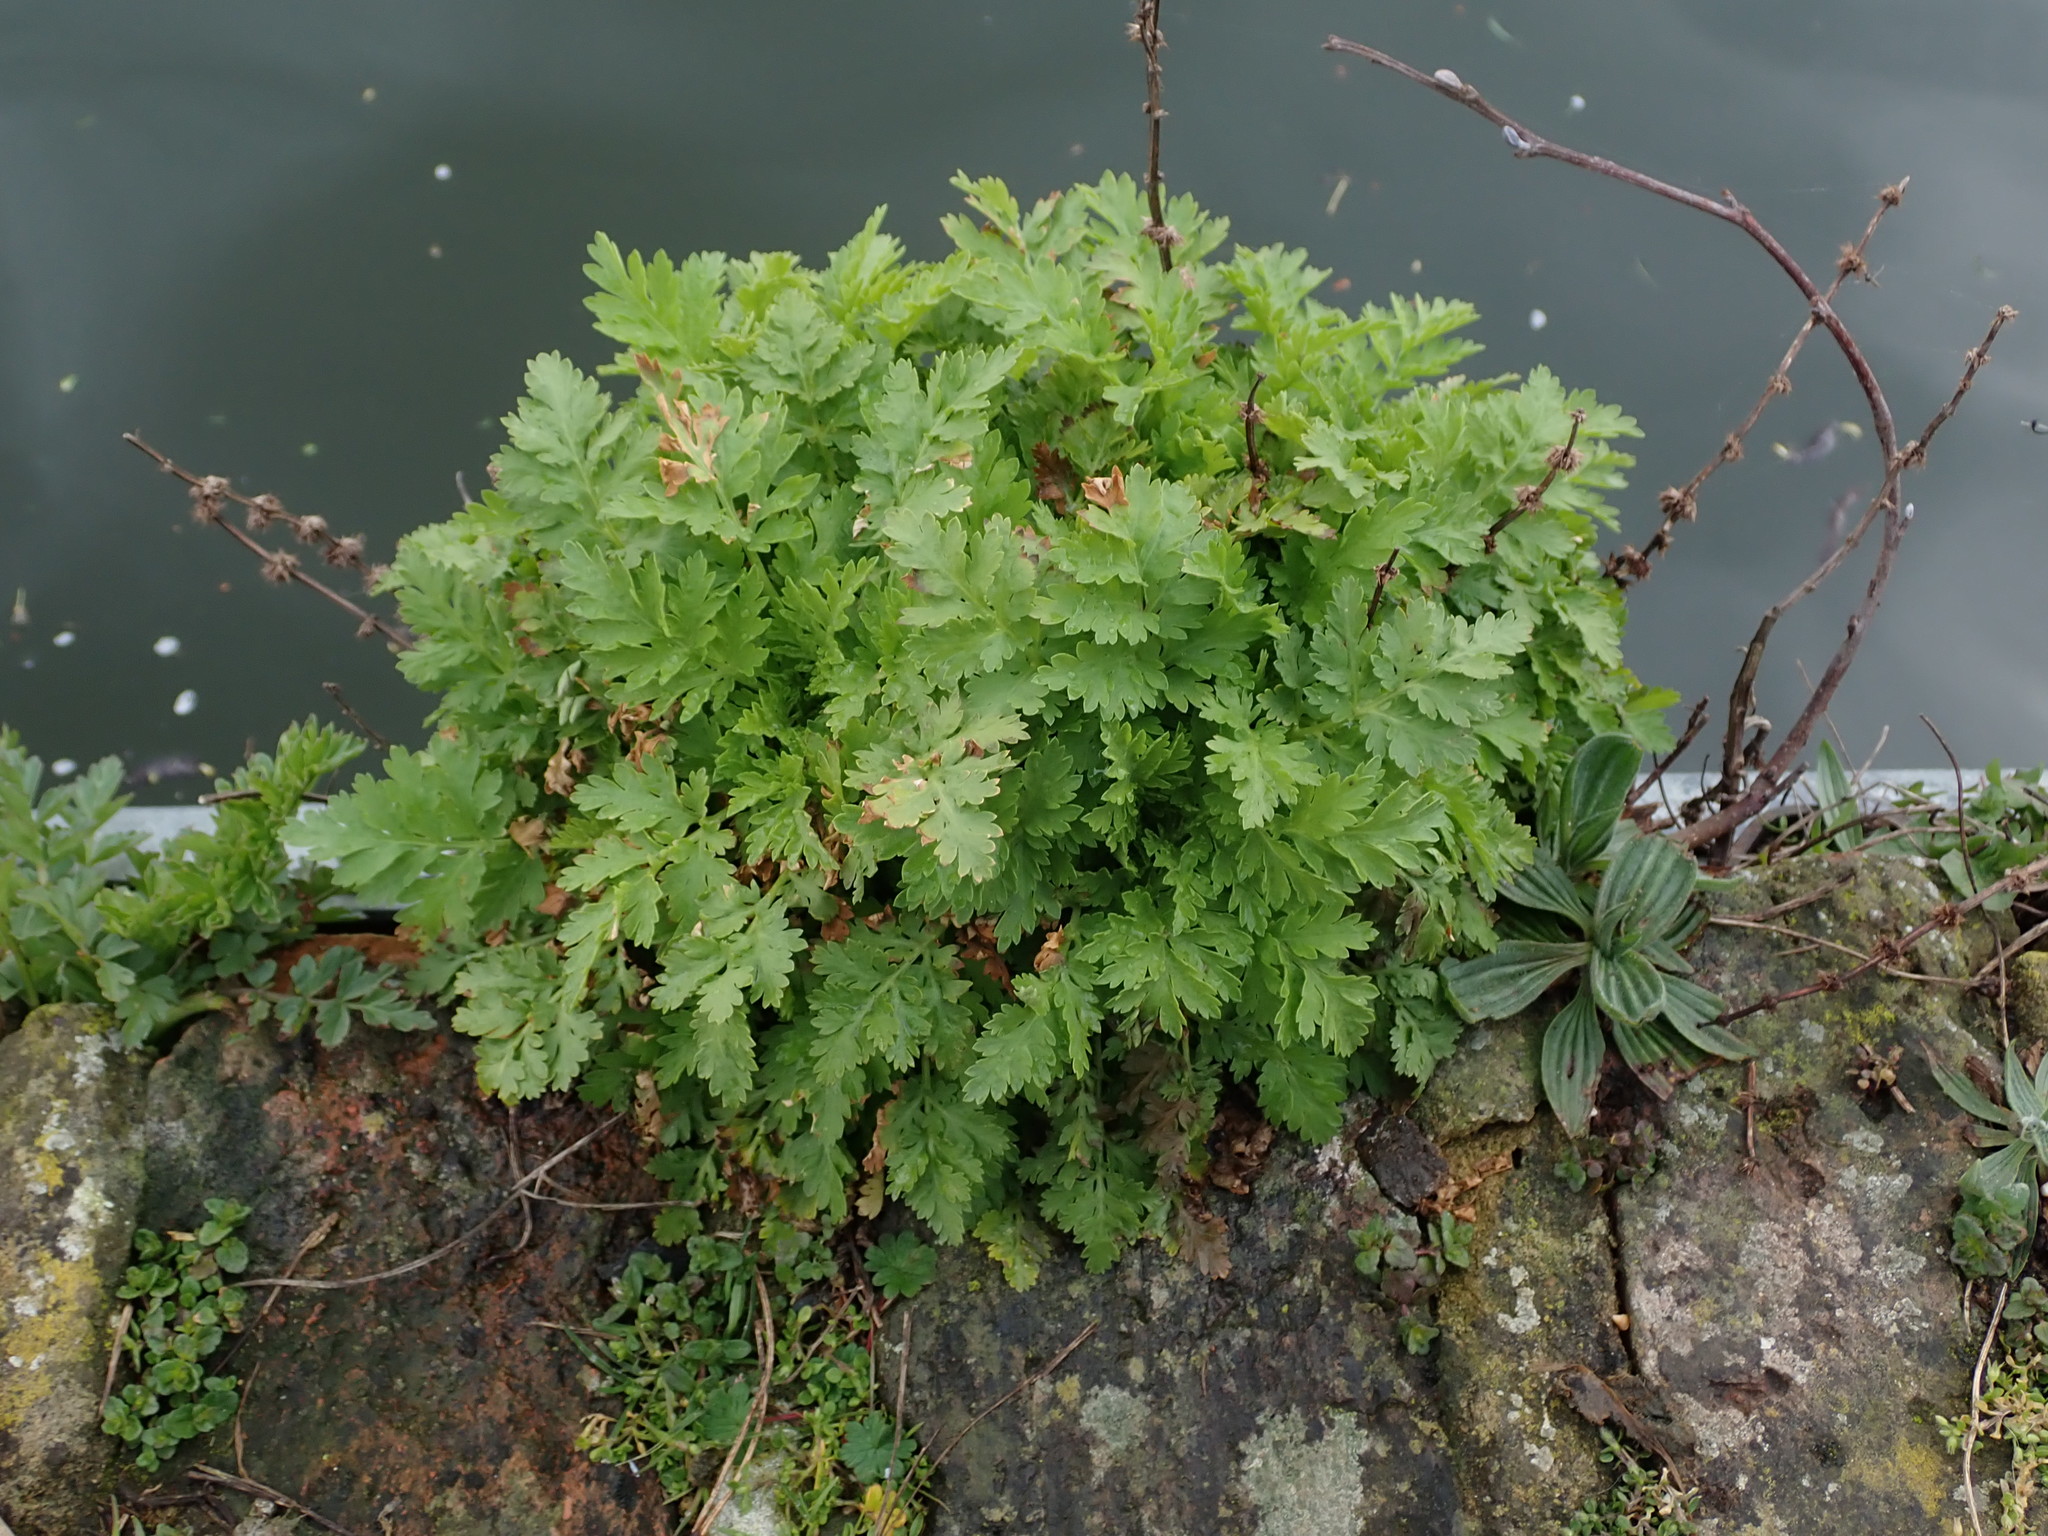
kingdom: Plantae
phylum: Tracheophyta
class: Magnoliopsida
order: Asterales
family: Asteraceae
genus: Tanacetum
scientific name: Tanacetum parthenium
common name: Feverfew
